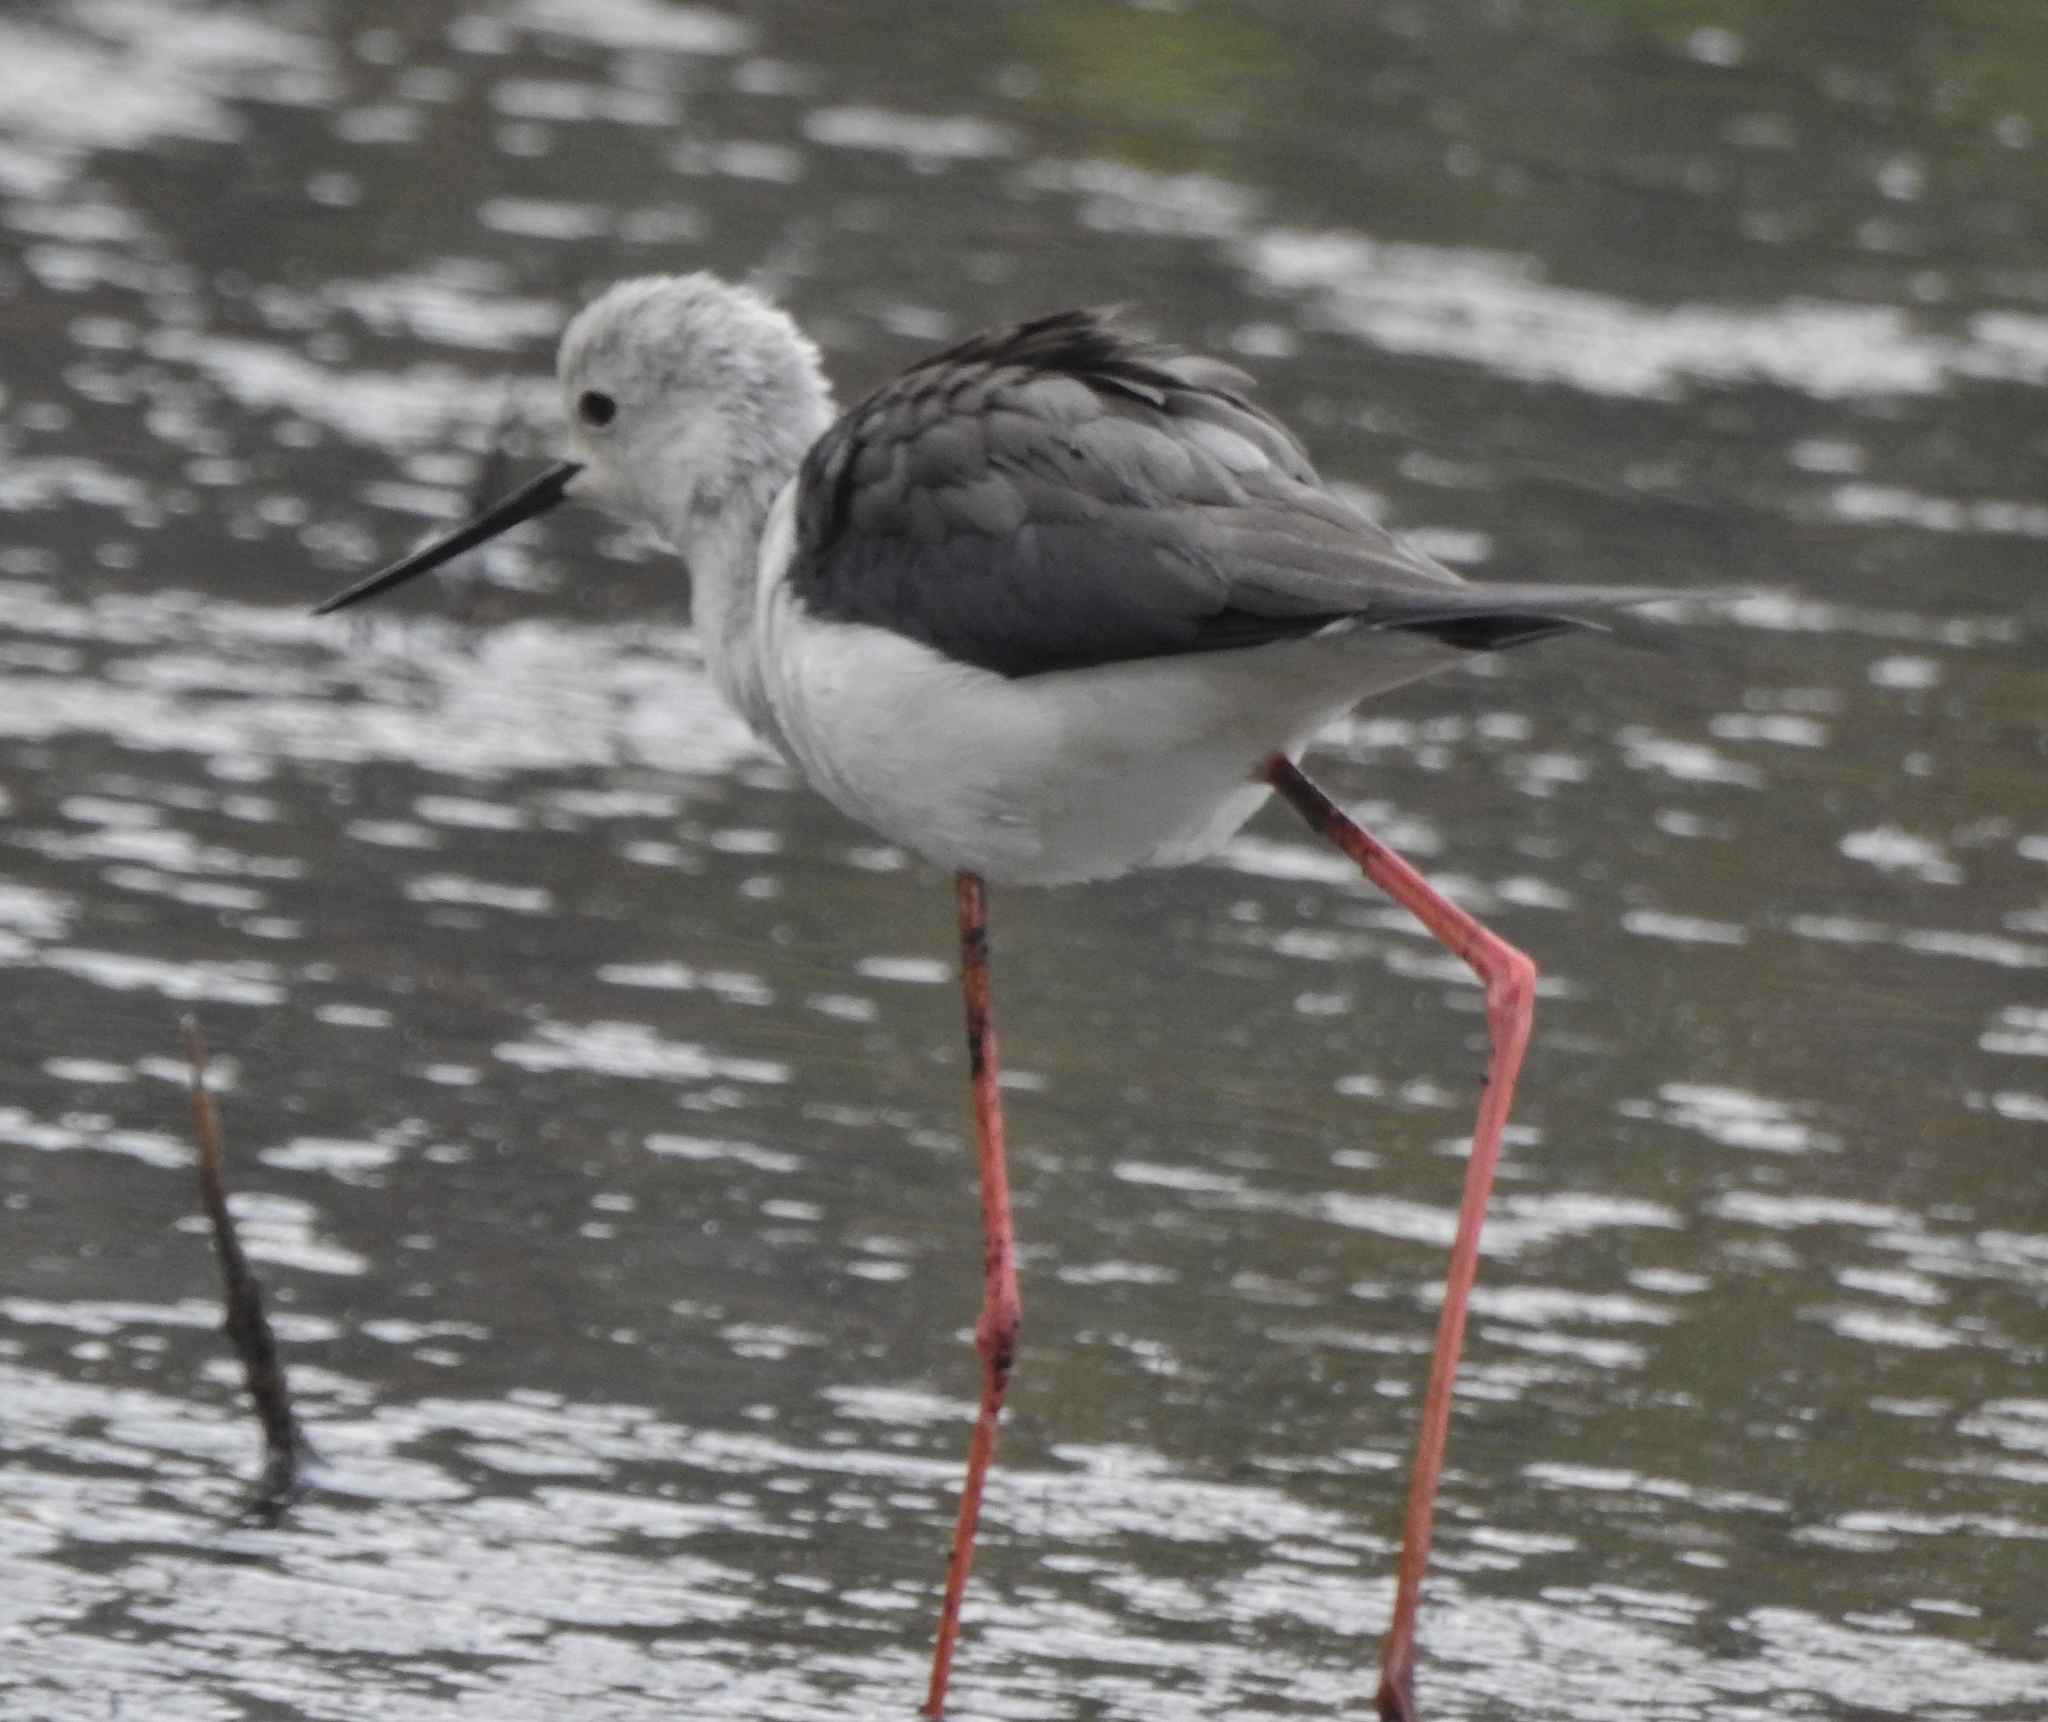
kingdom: Animalia
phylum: Chordata
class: Aves
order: Charadriiformes
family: Recurvirostridae
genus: Himantopus
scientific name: Himantopus himantopus
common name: Black-winged stilt
